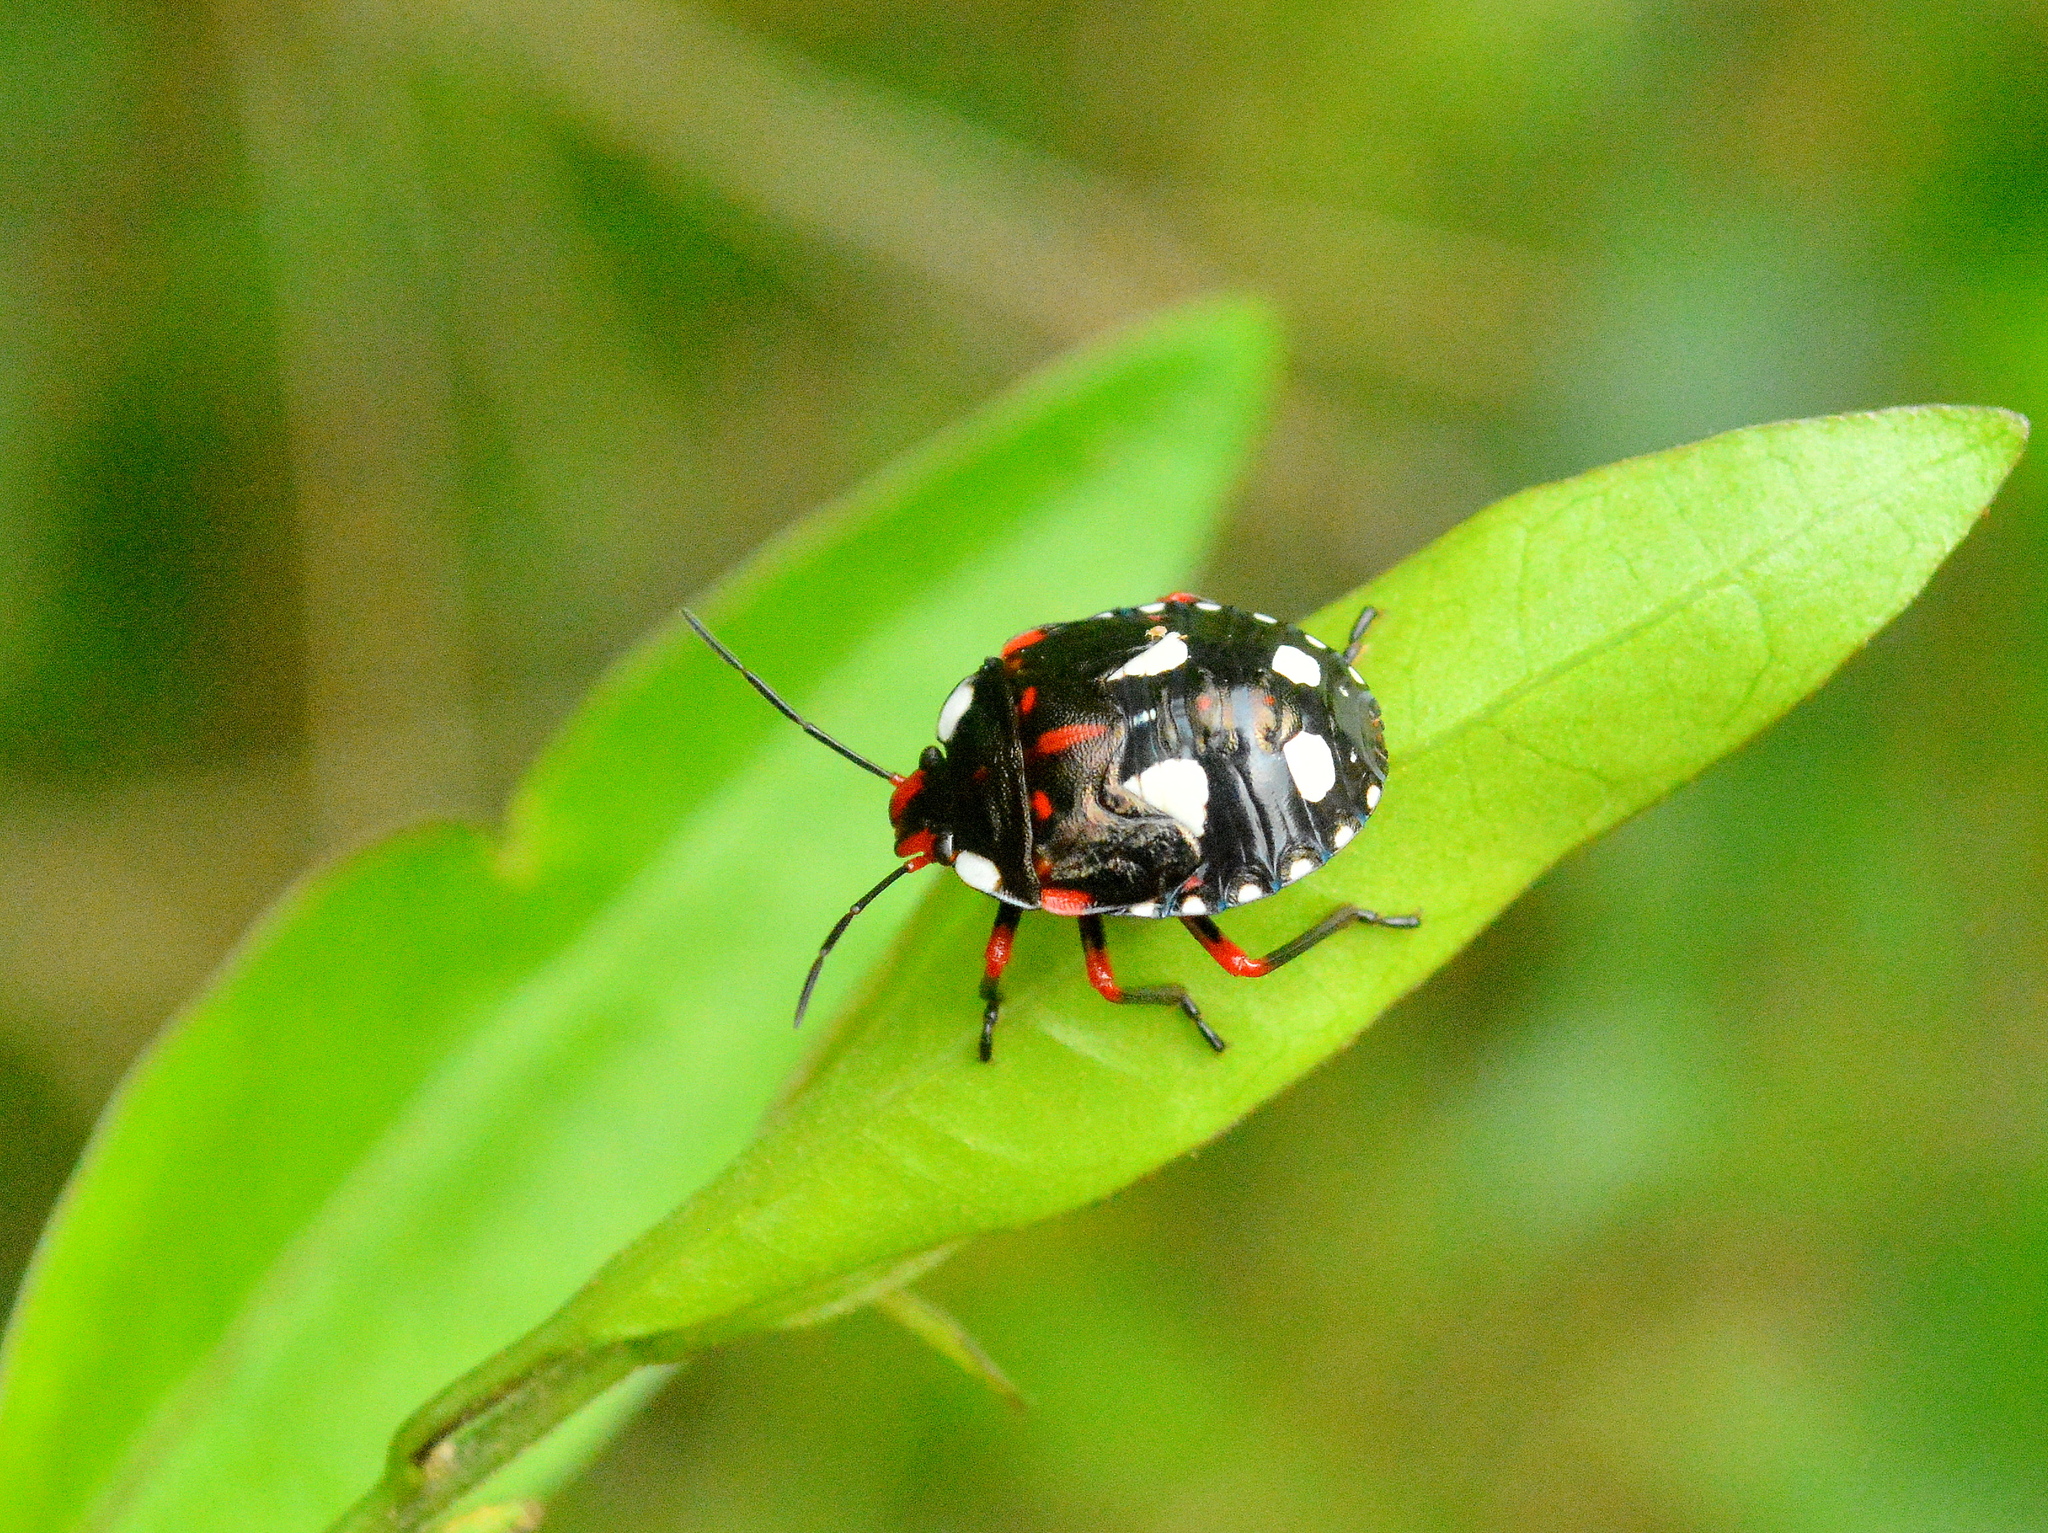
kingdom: Animalia
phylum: Arthropoda
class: Insecta
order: Hemiptera
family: Pentatomidae
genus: Chinavia
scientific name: Chinavia erythrocnemis
